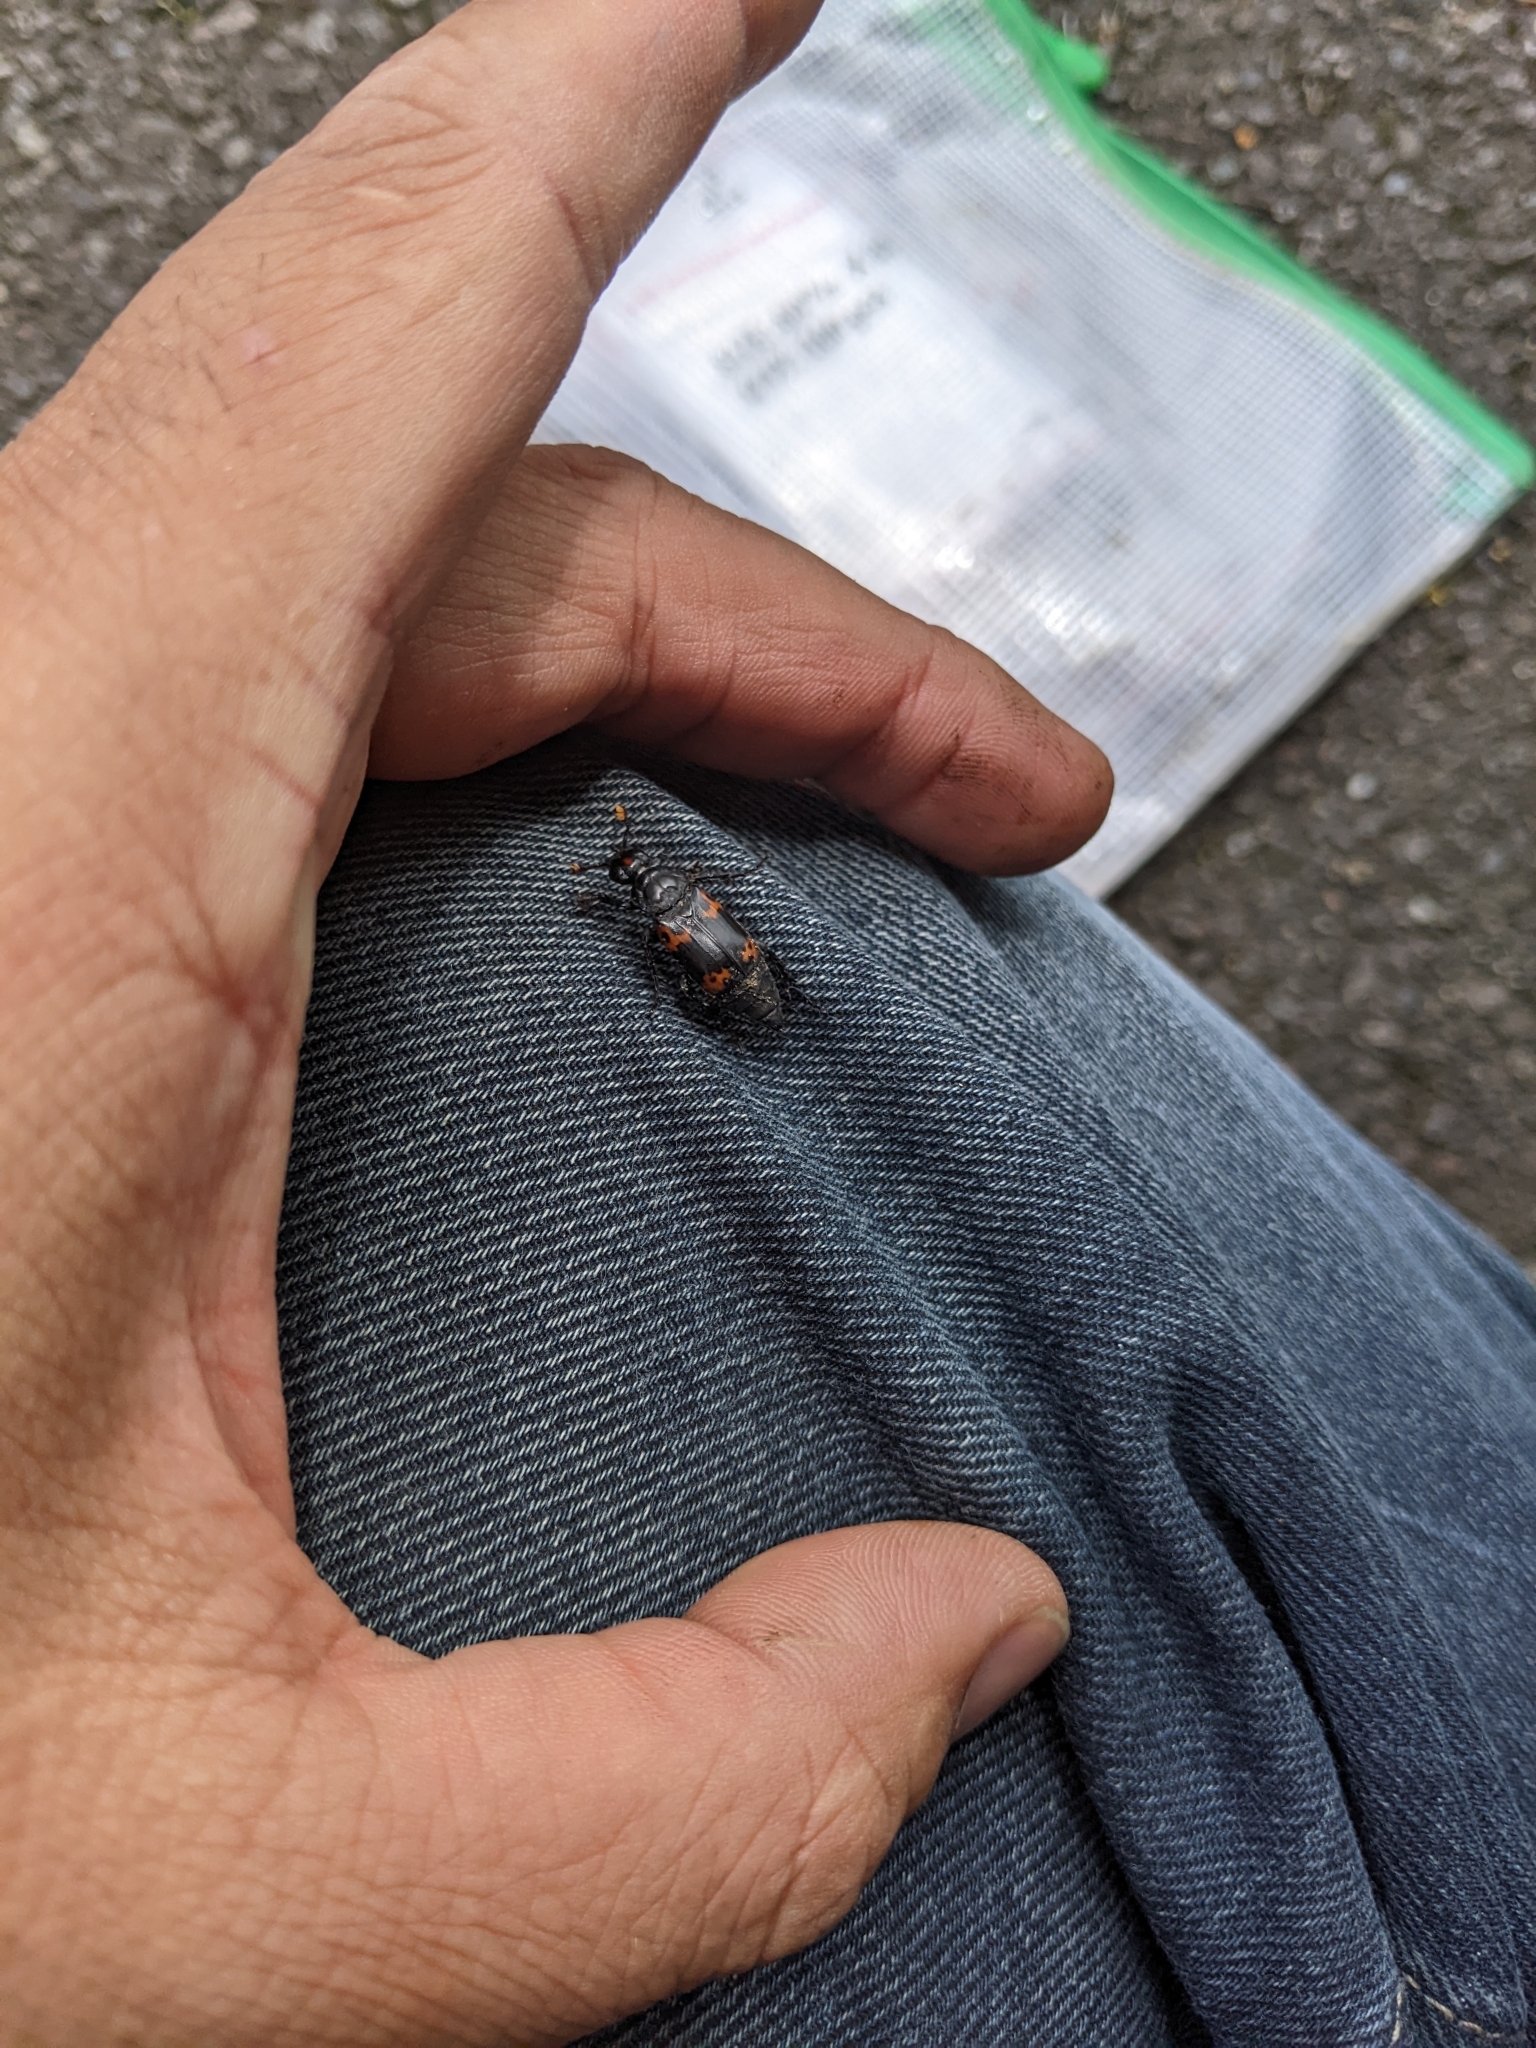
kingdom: Animalia
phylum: Arthropoda
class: Insecta
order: Coleoptera
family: Staphylinidae
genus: Nicrophorus
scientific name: Nicrophorus nepalensis
